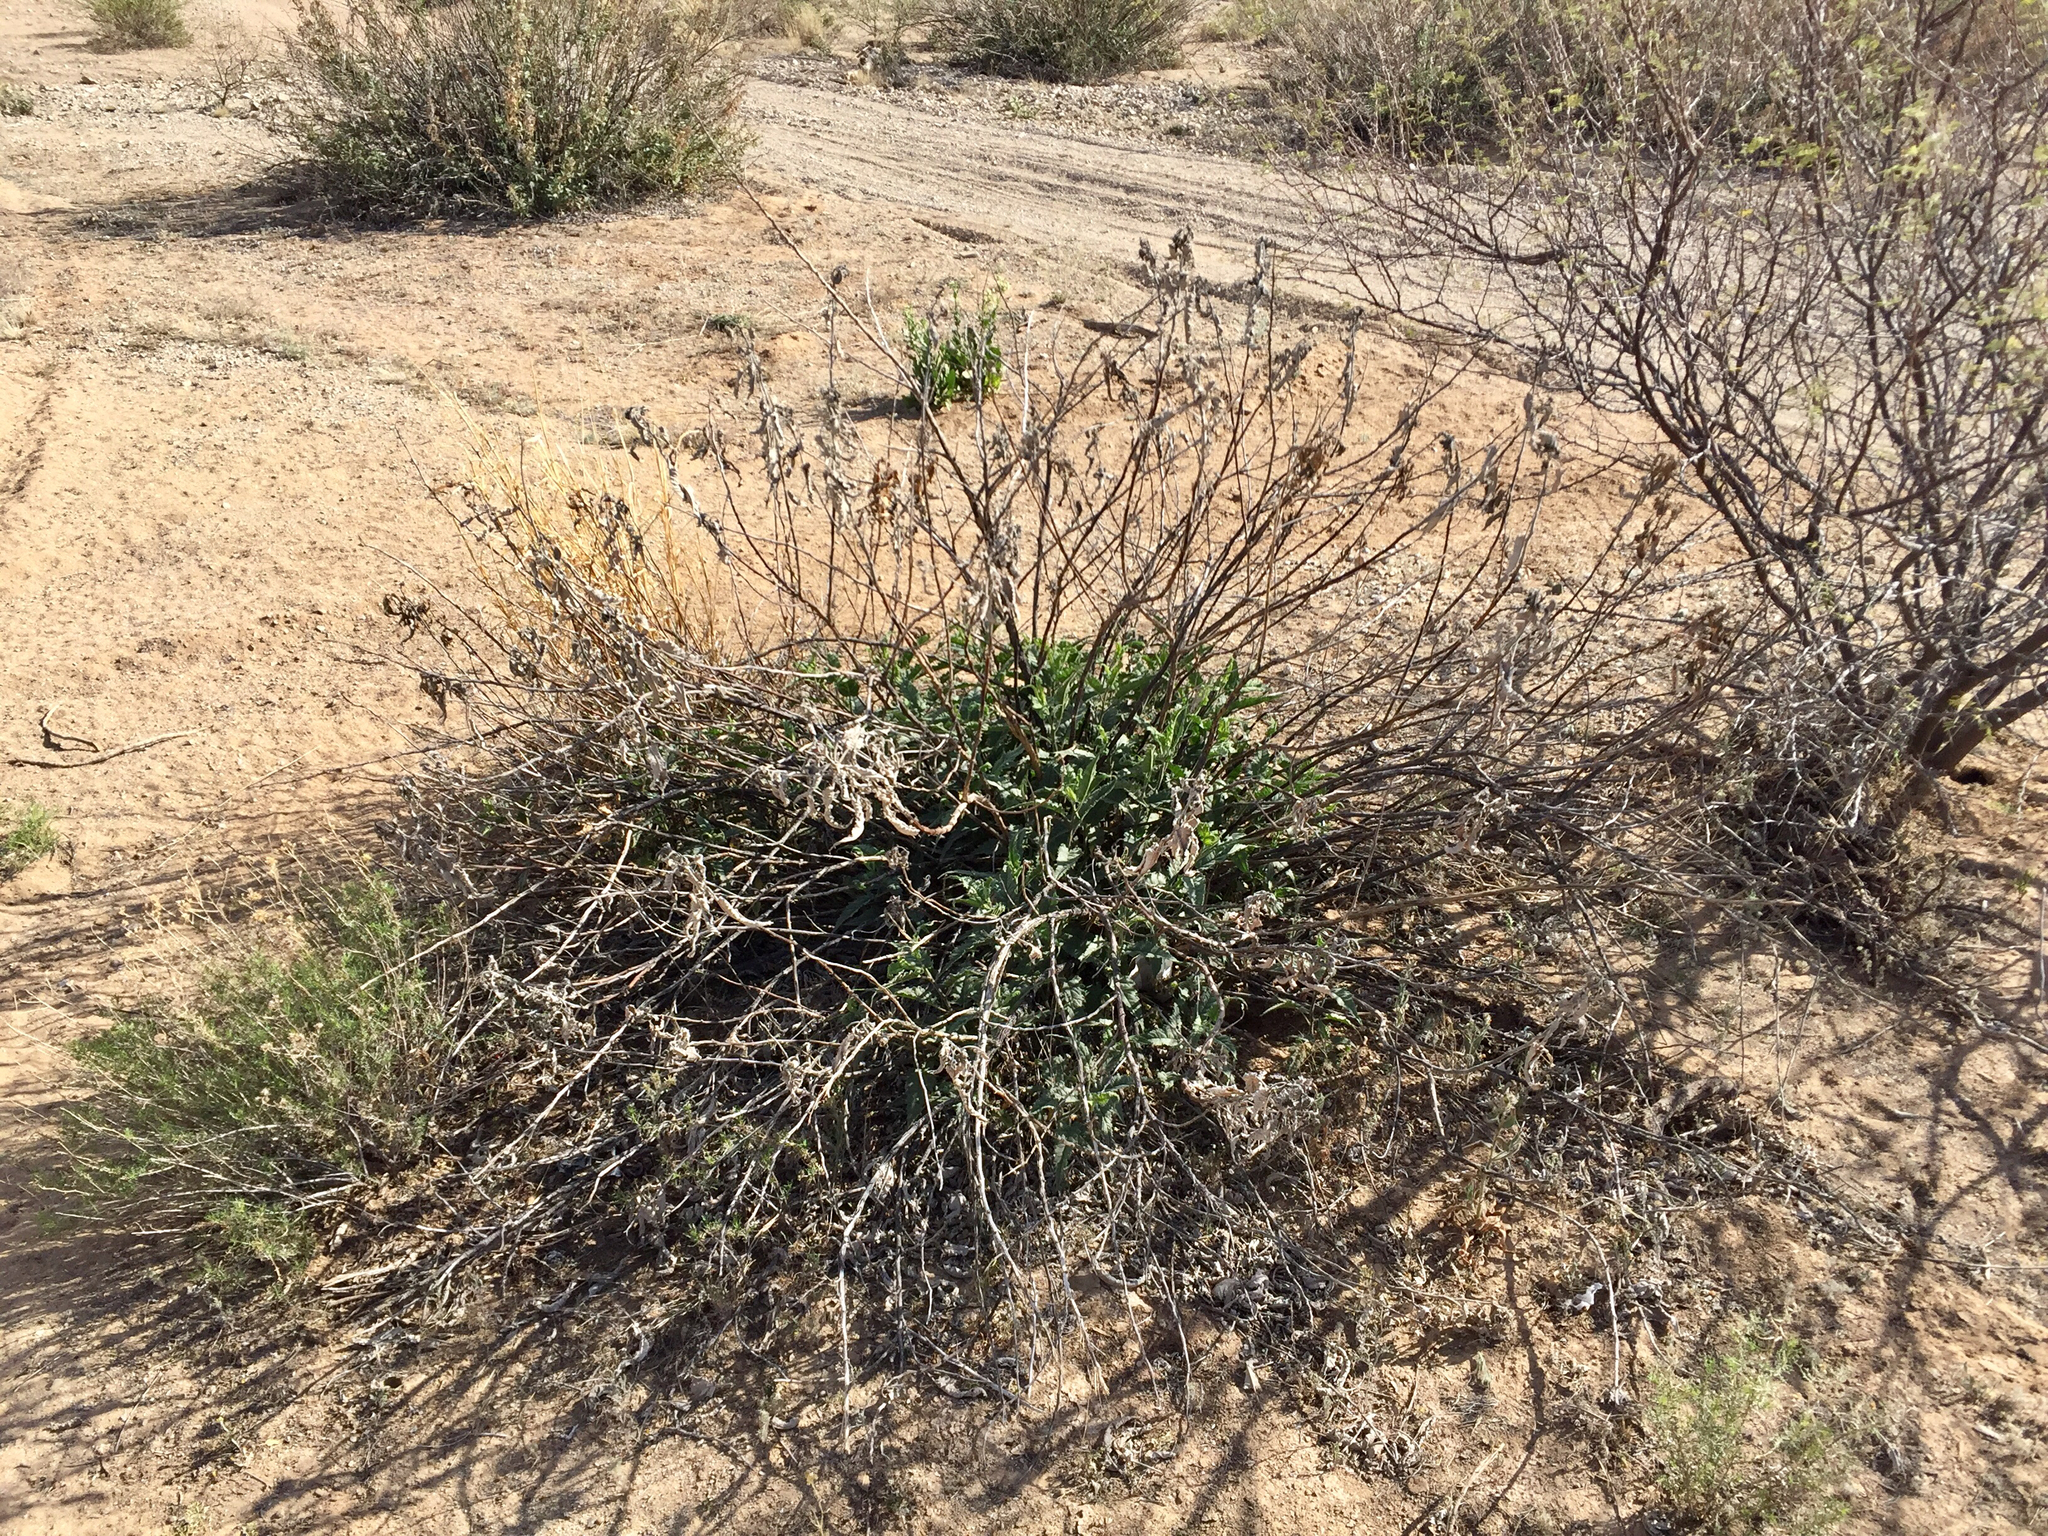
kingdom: Plantae
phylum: Tracheophyta
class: Magnoliopsida
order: Asterales
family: Asteraceae
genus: Ambrosia
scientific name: Ambrosia ambrosioides
